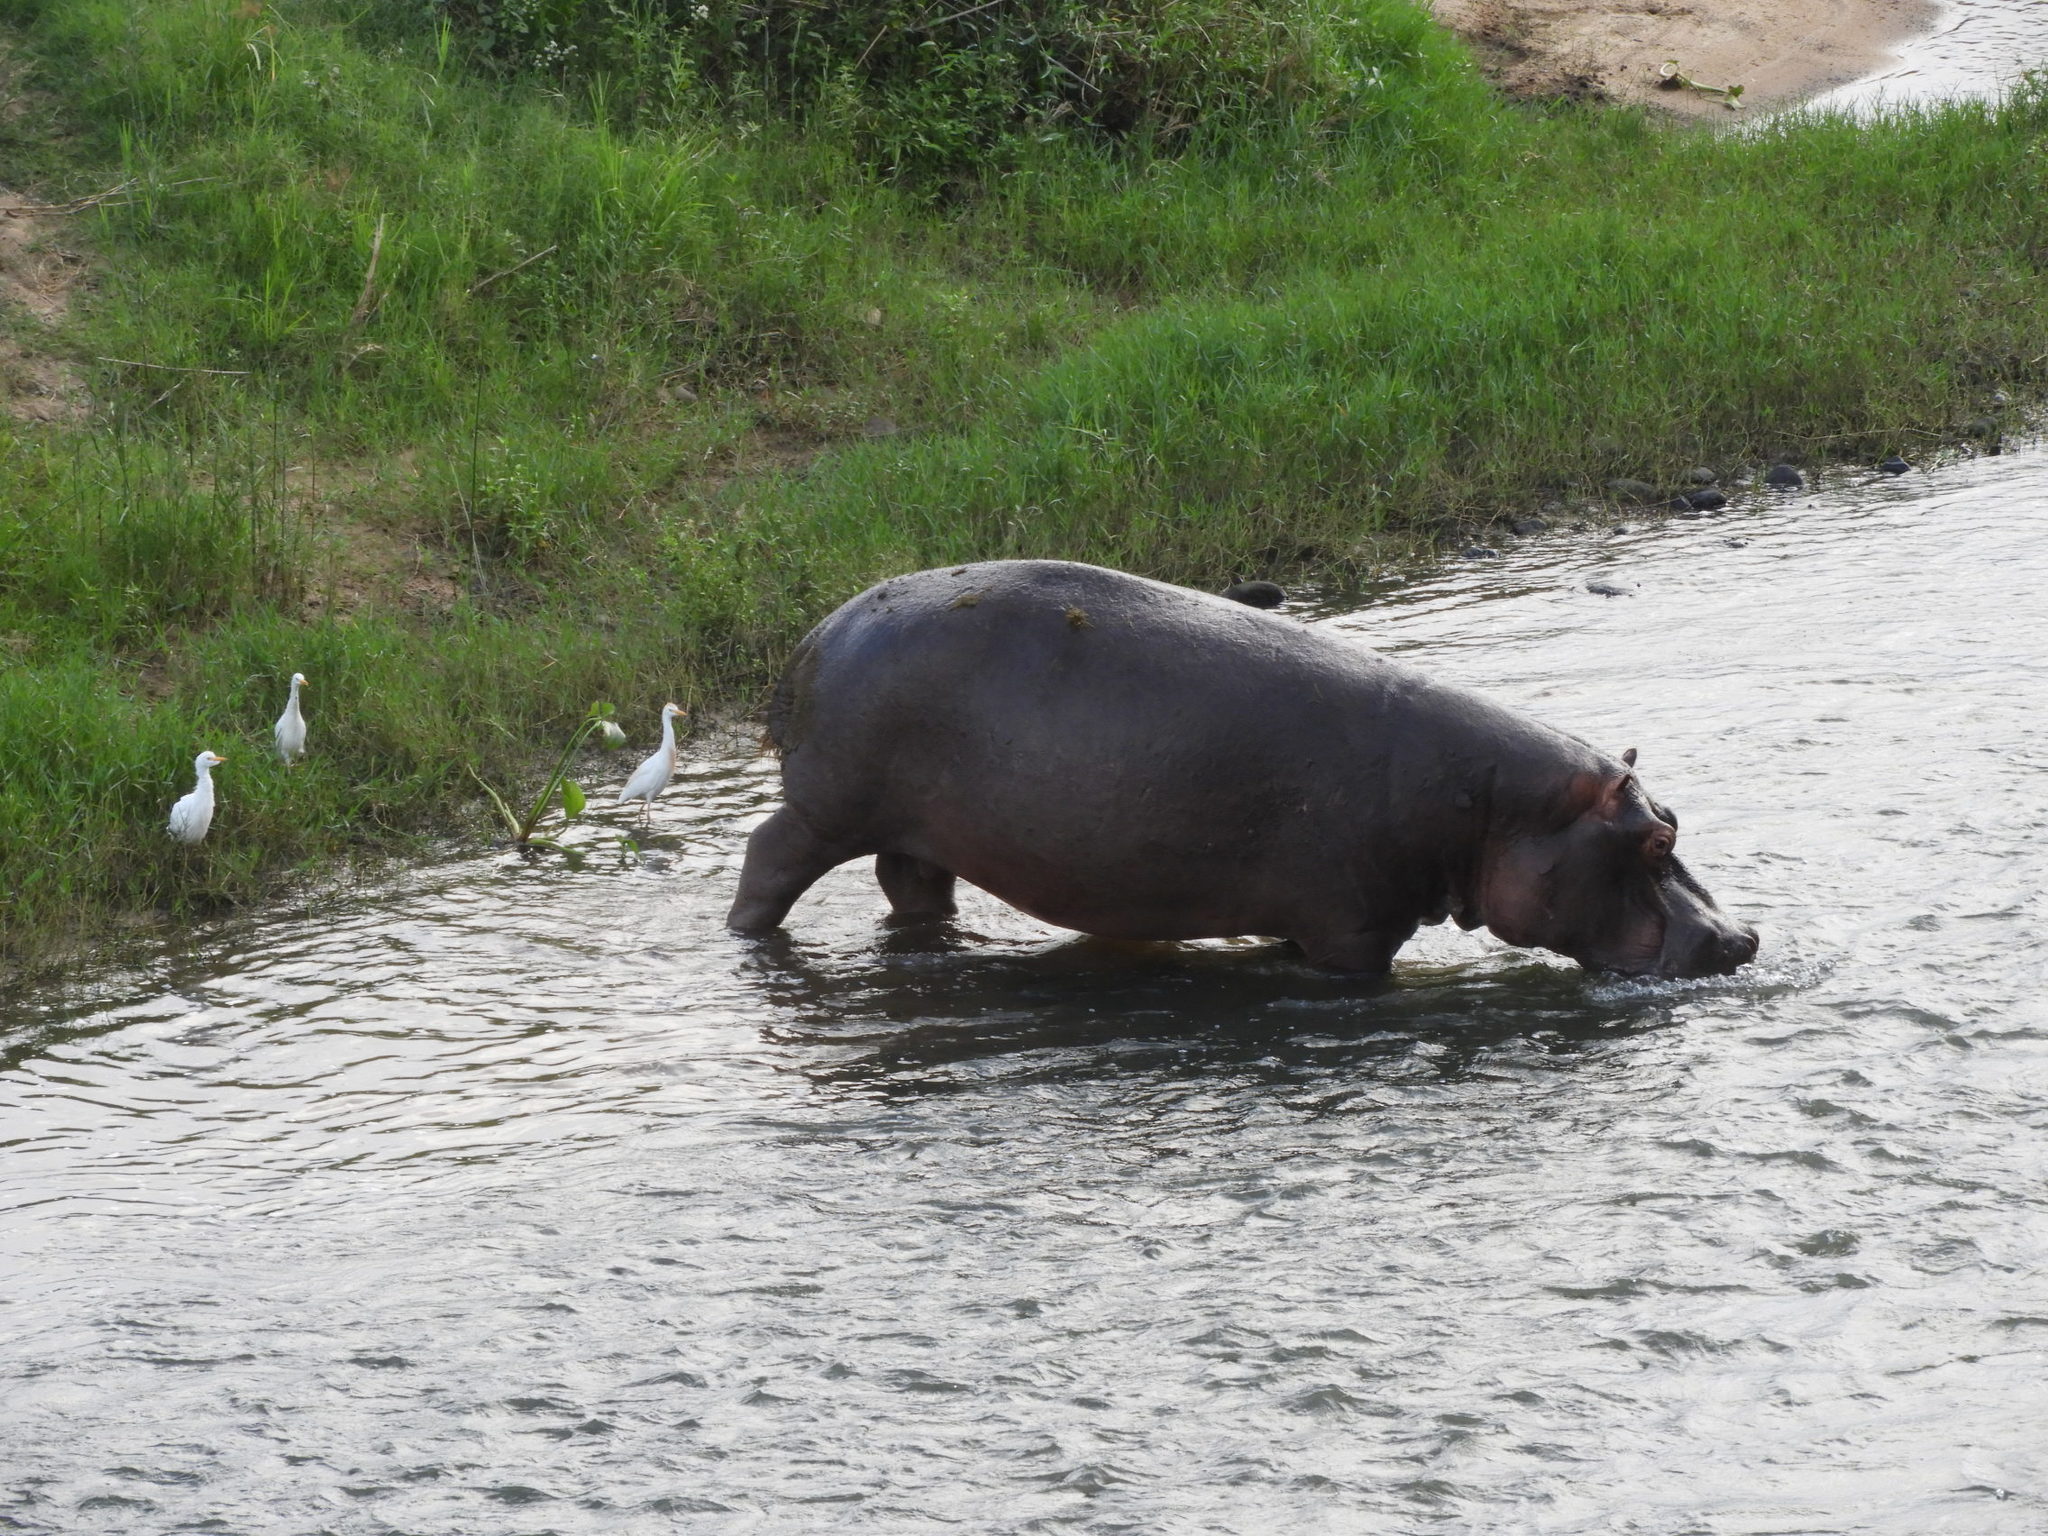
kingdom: Animalia
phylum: Chordata
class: Mammalia
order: Artiodactyla
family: Hippopotamidae
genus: Hippopotamus
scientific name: Hippopotamus amphibius
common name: Common hippopotamus
